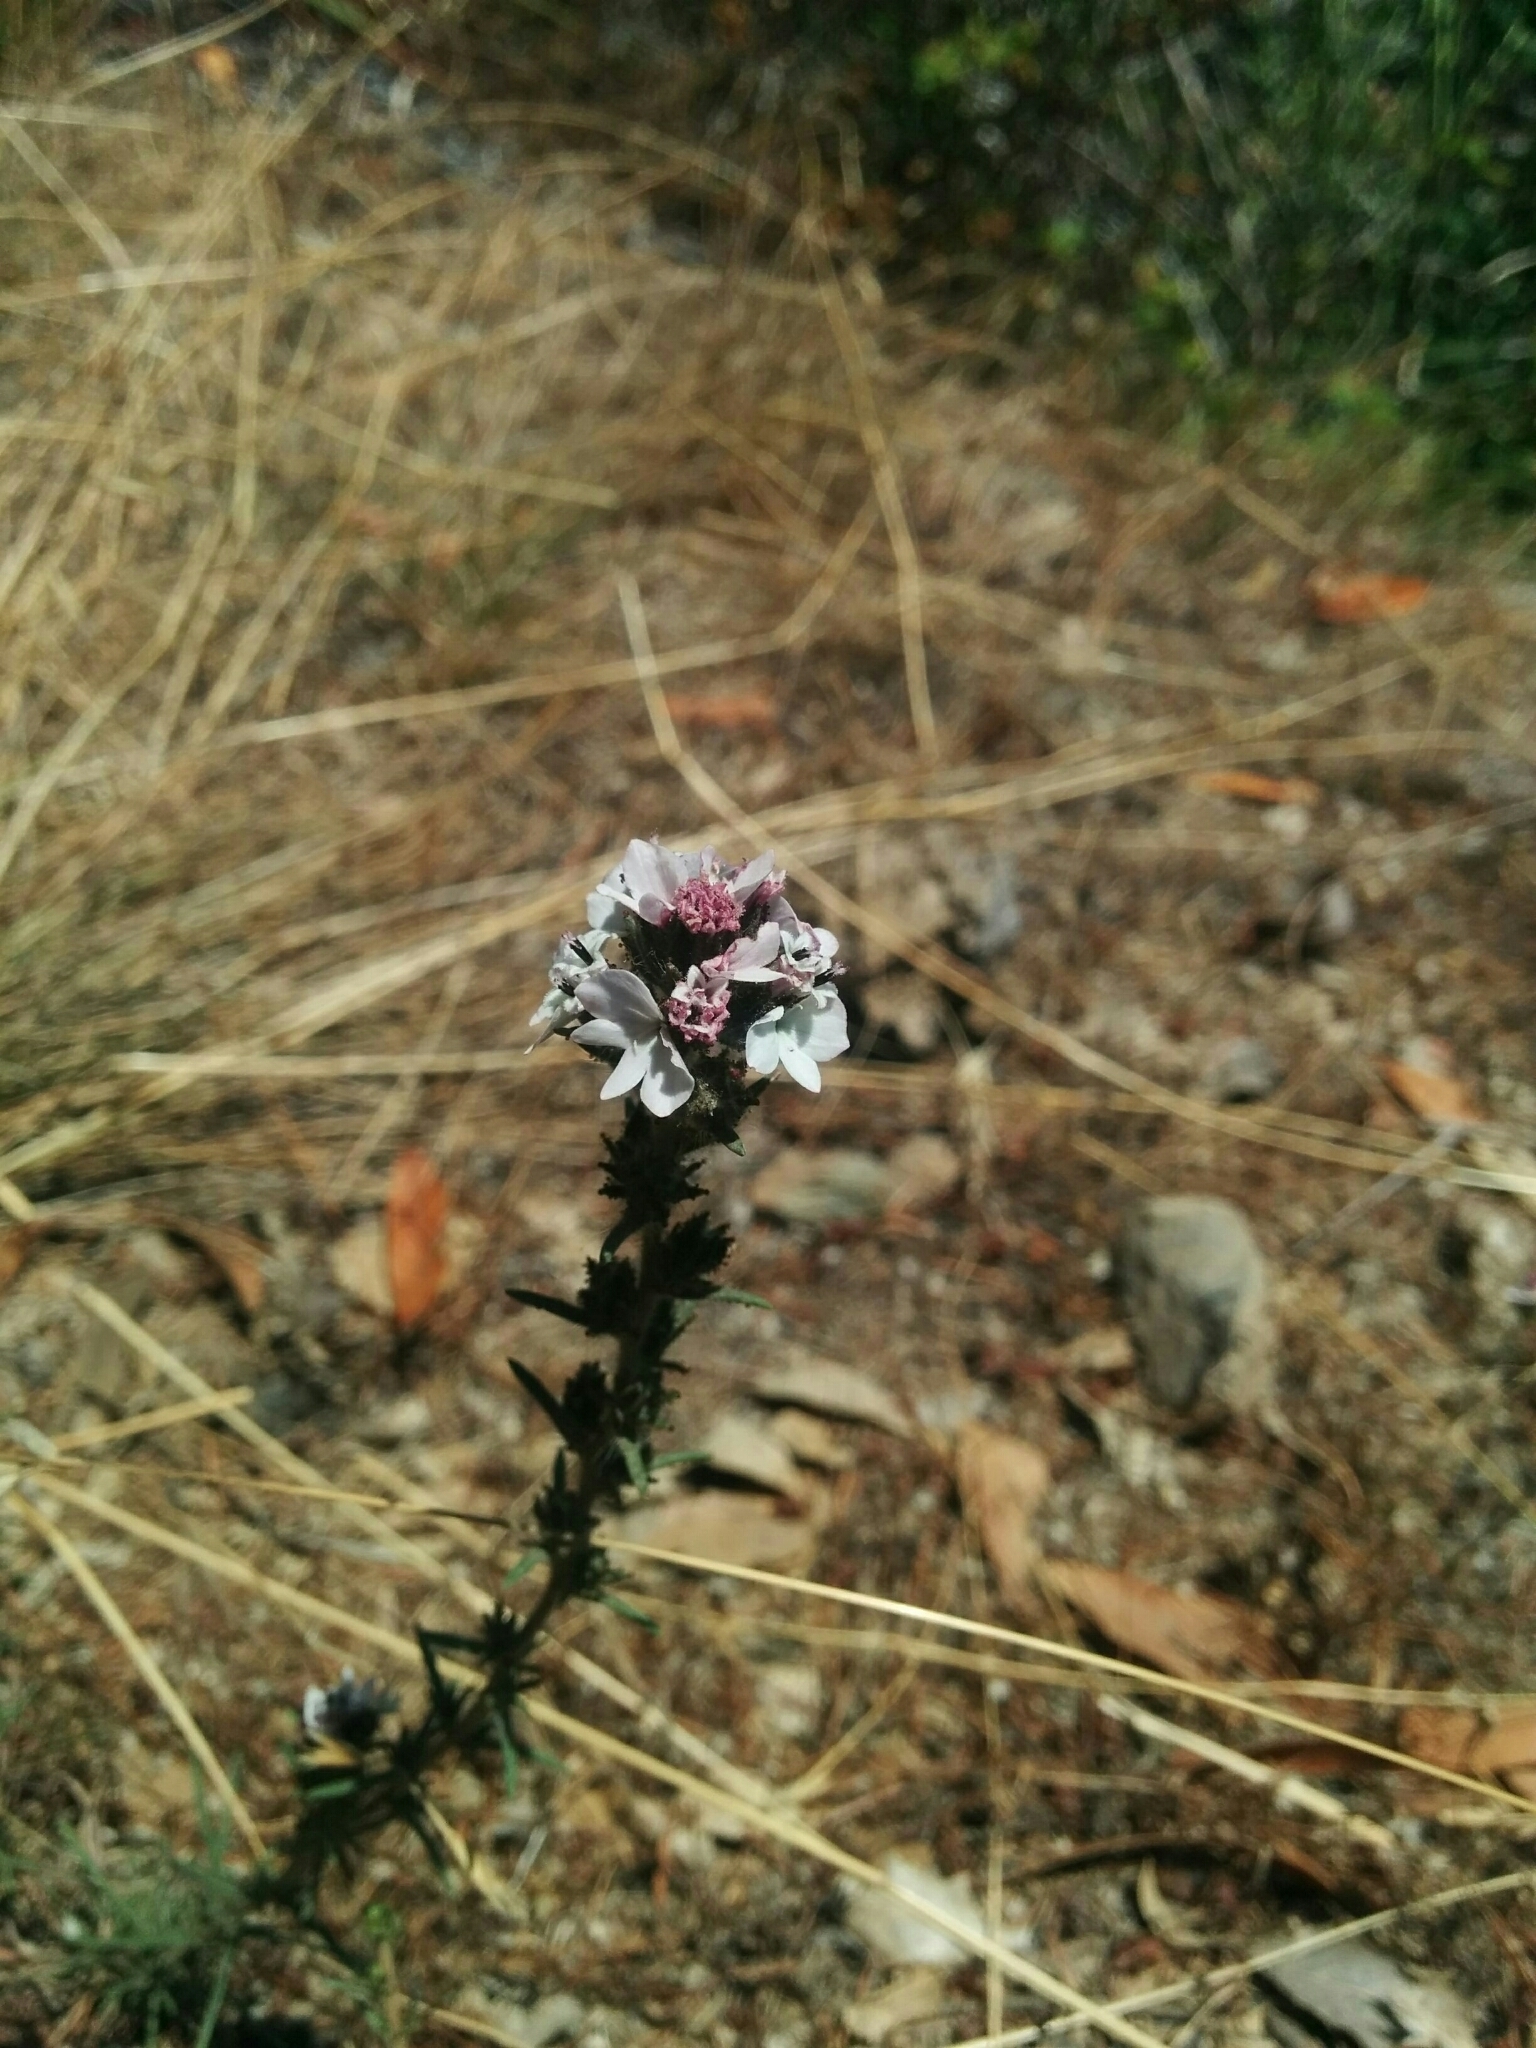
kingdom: Plantae
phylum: Tracheophyta
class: Magnoliopsida
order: Asterales
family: Asteraceae
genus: Calycadenia
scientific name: Calycadenia multiglandulosa
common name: Sticky calycadenia
